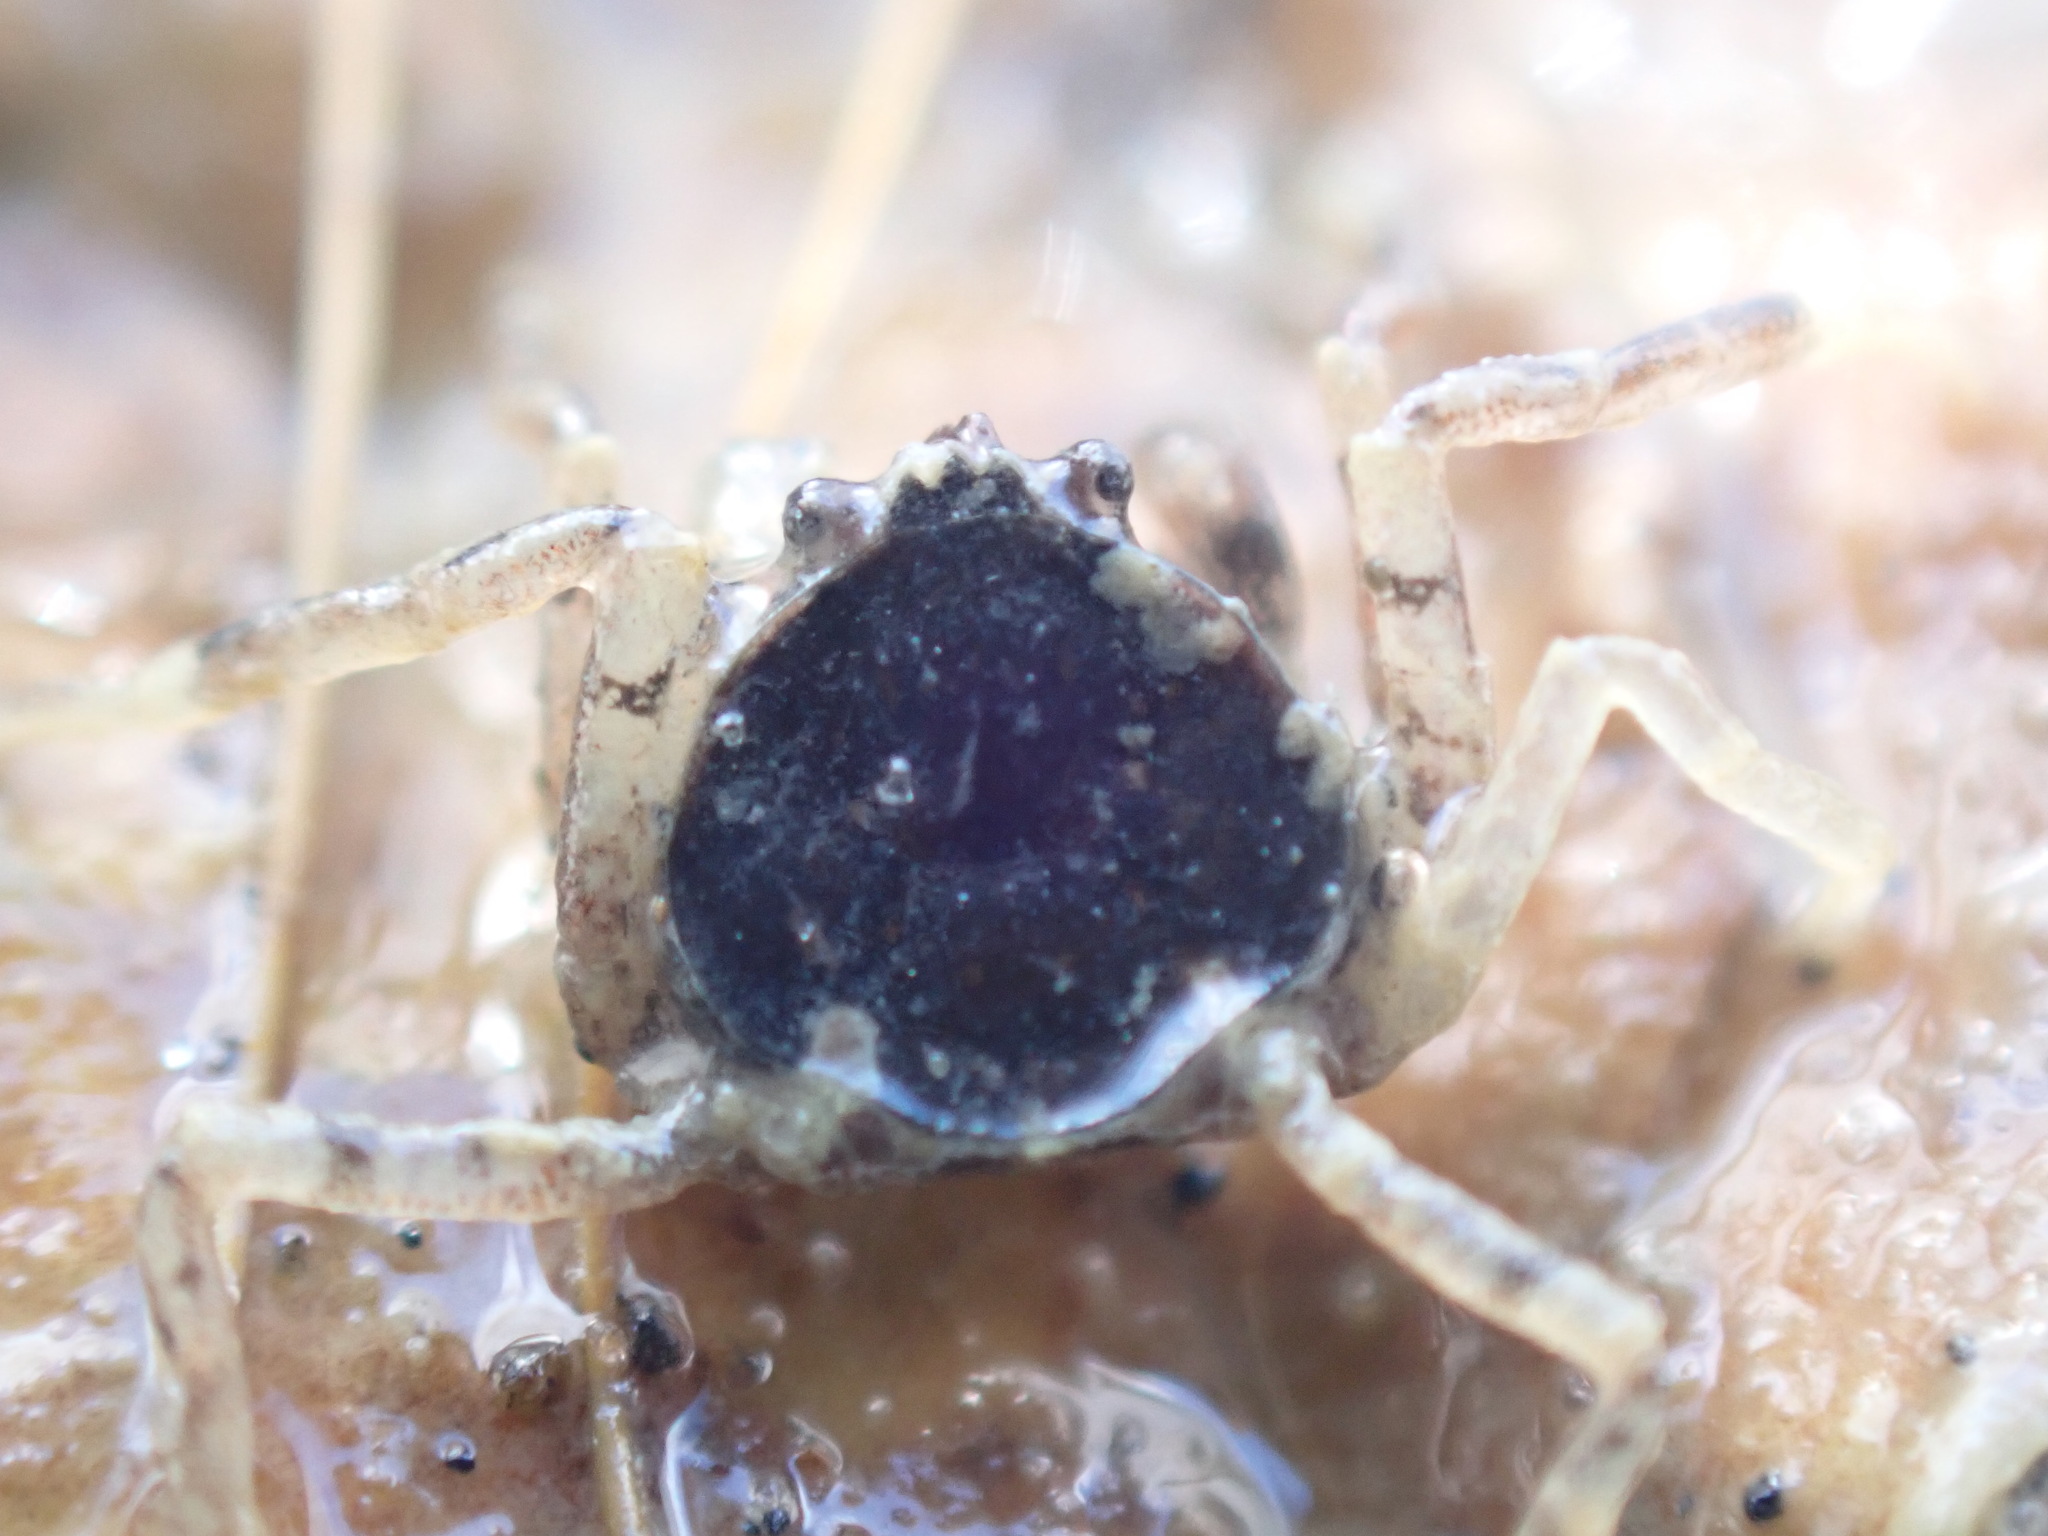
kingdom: Animalia
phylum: Arthropoda
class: Malacostraca
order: Decapoda
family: Hymenosomatidae
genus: Halicarcinus
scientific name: Halicarcinus quoyi
